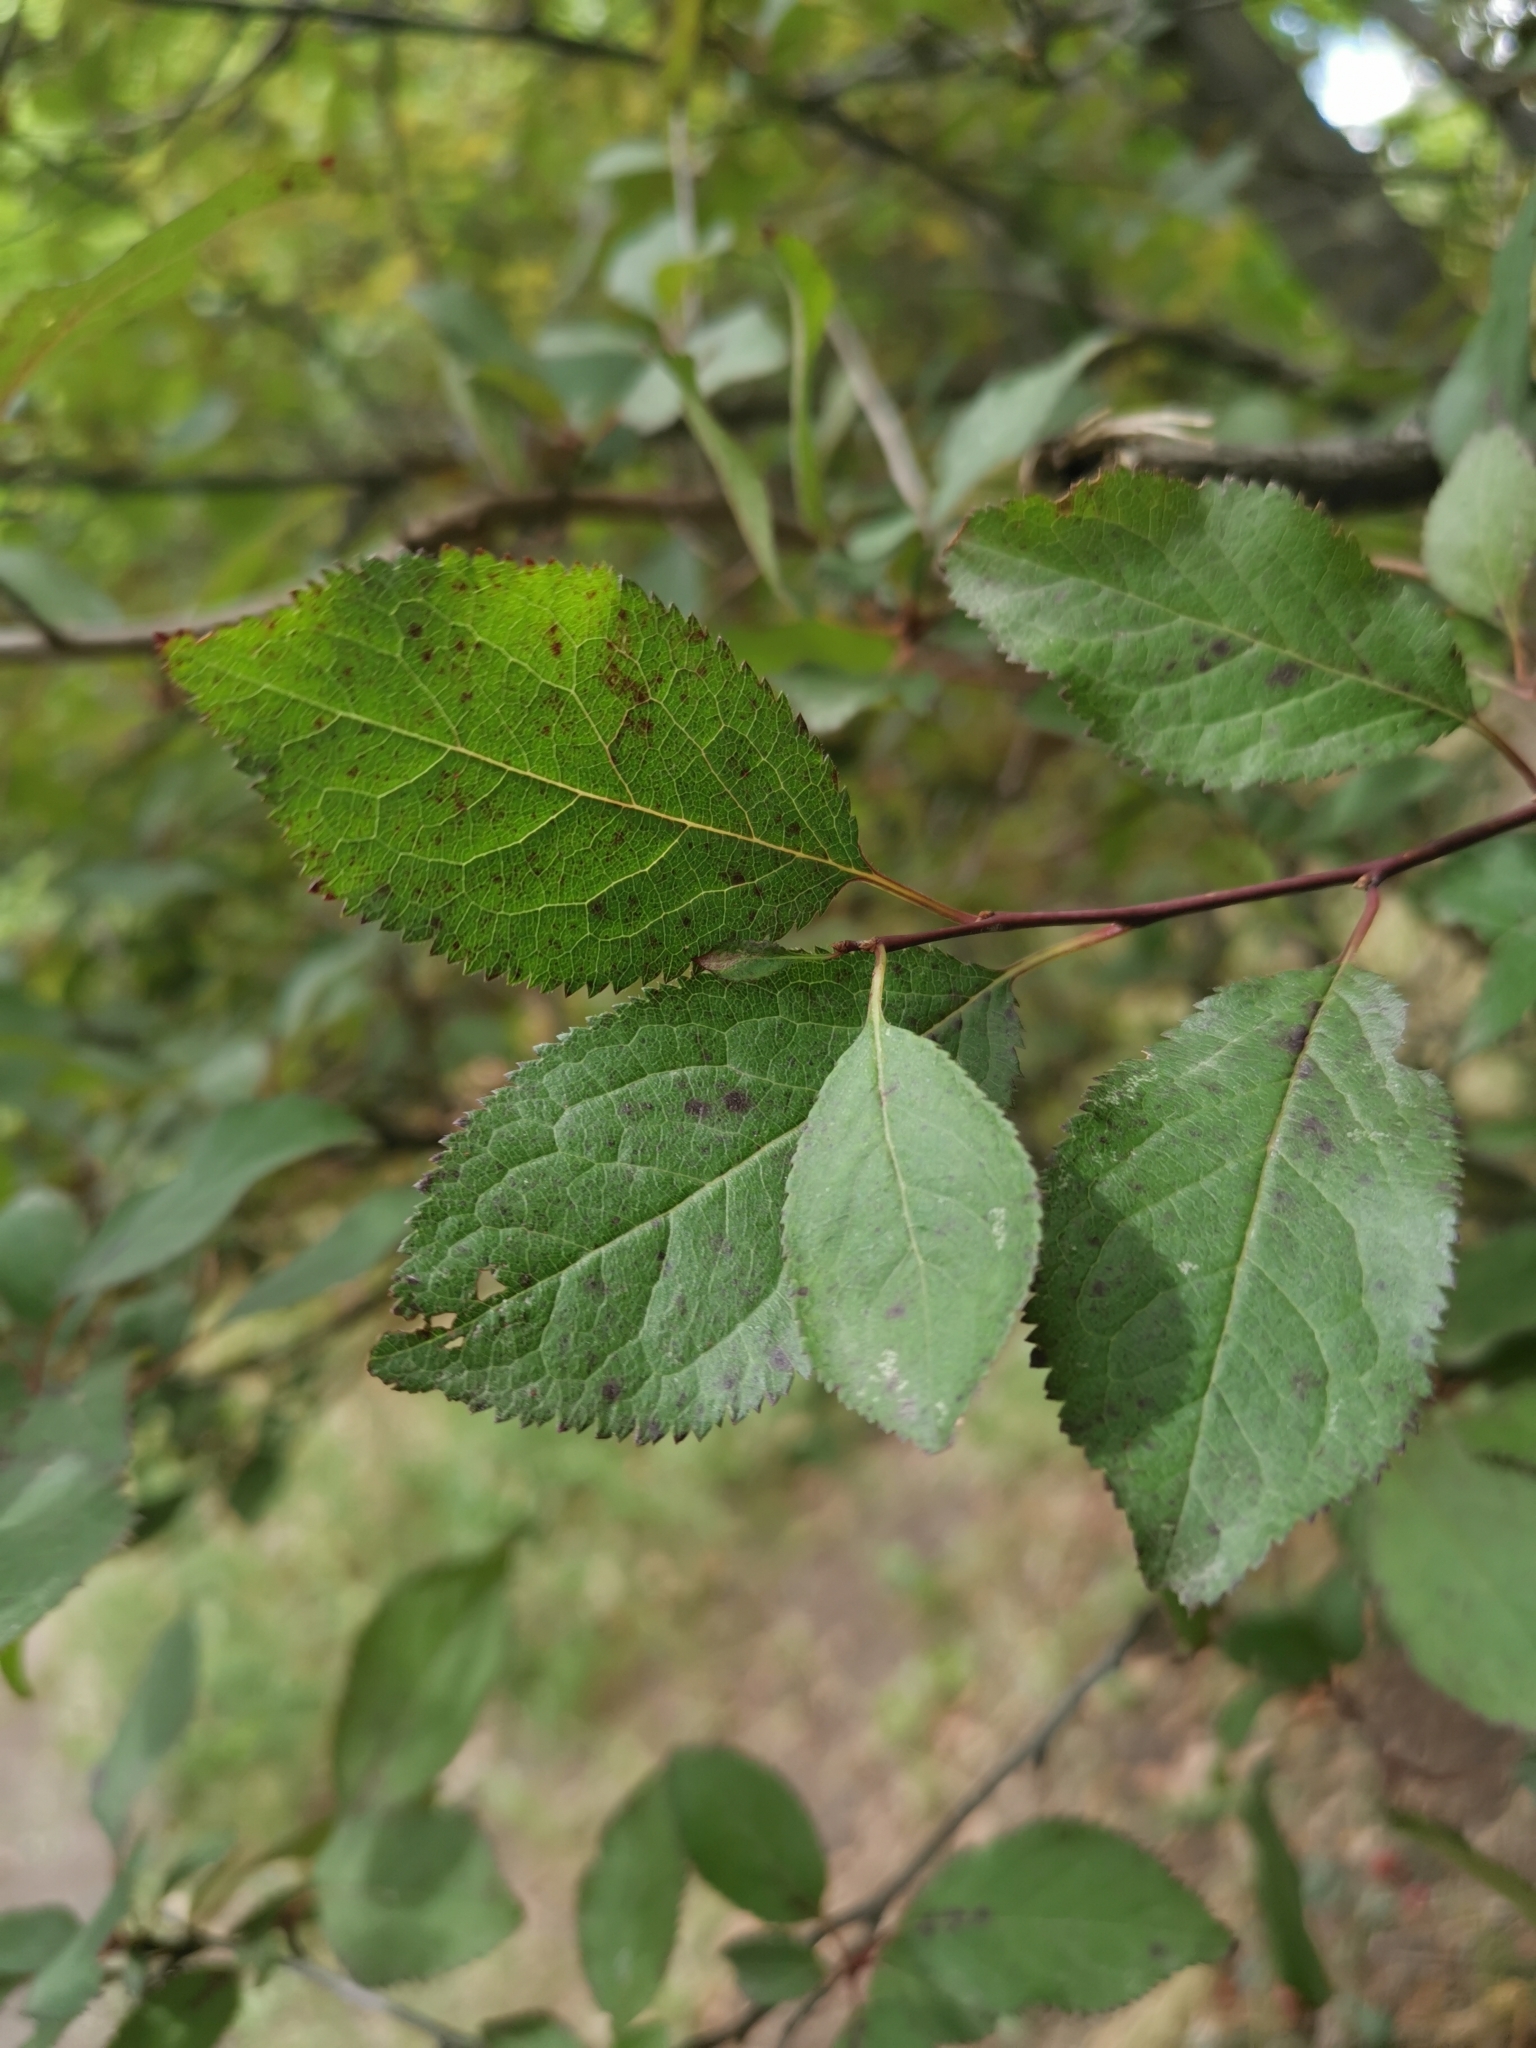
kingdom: Plantae
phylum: Tracheophyta
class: Magnoliopsida
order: Rosales
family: Rosaceae
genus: Prunus
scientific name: Prunus cerasifera
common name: Cherry plum
